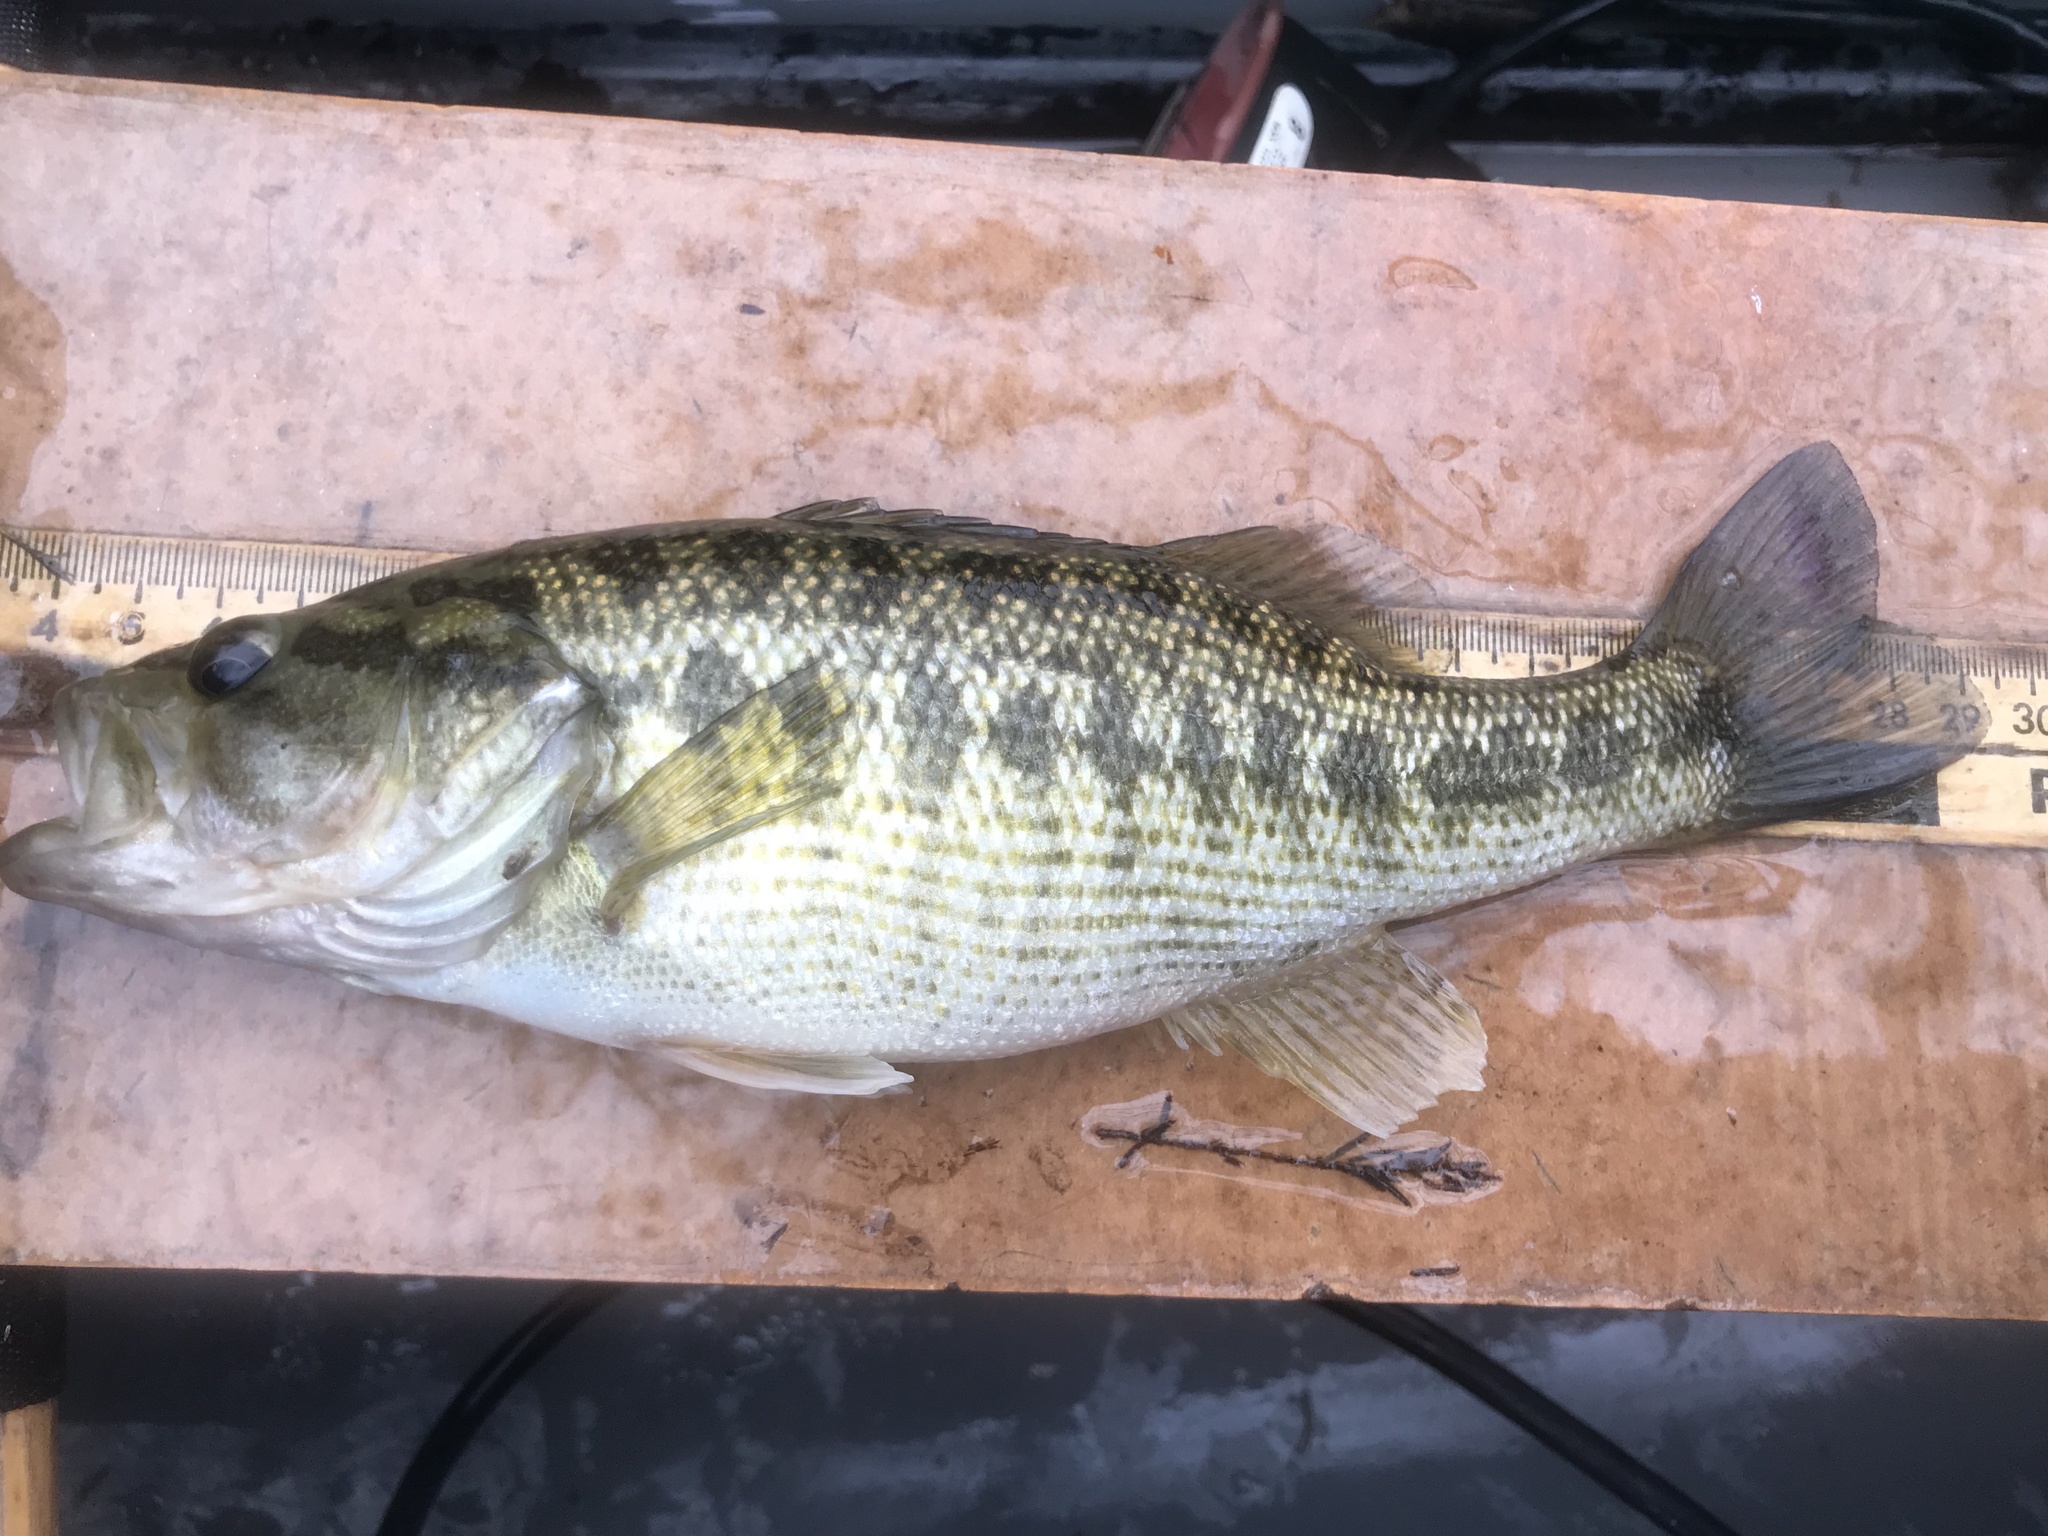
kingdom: Animalia
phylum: Chordata
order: Perciformes
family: Centrarchidae
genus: Micropterus
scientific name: Micropterus treculii
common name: Guadalupe bass
